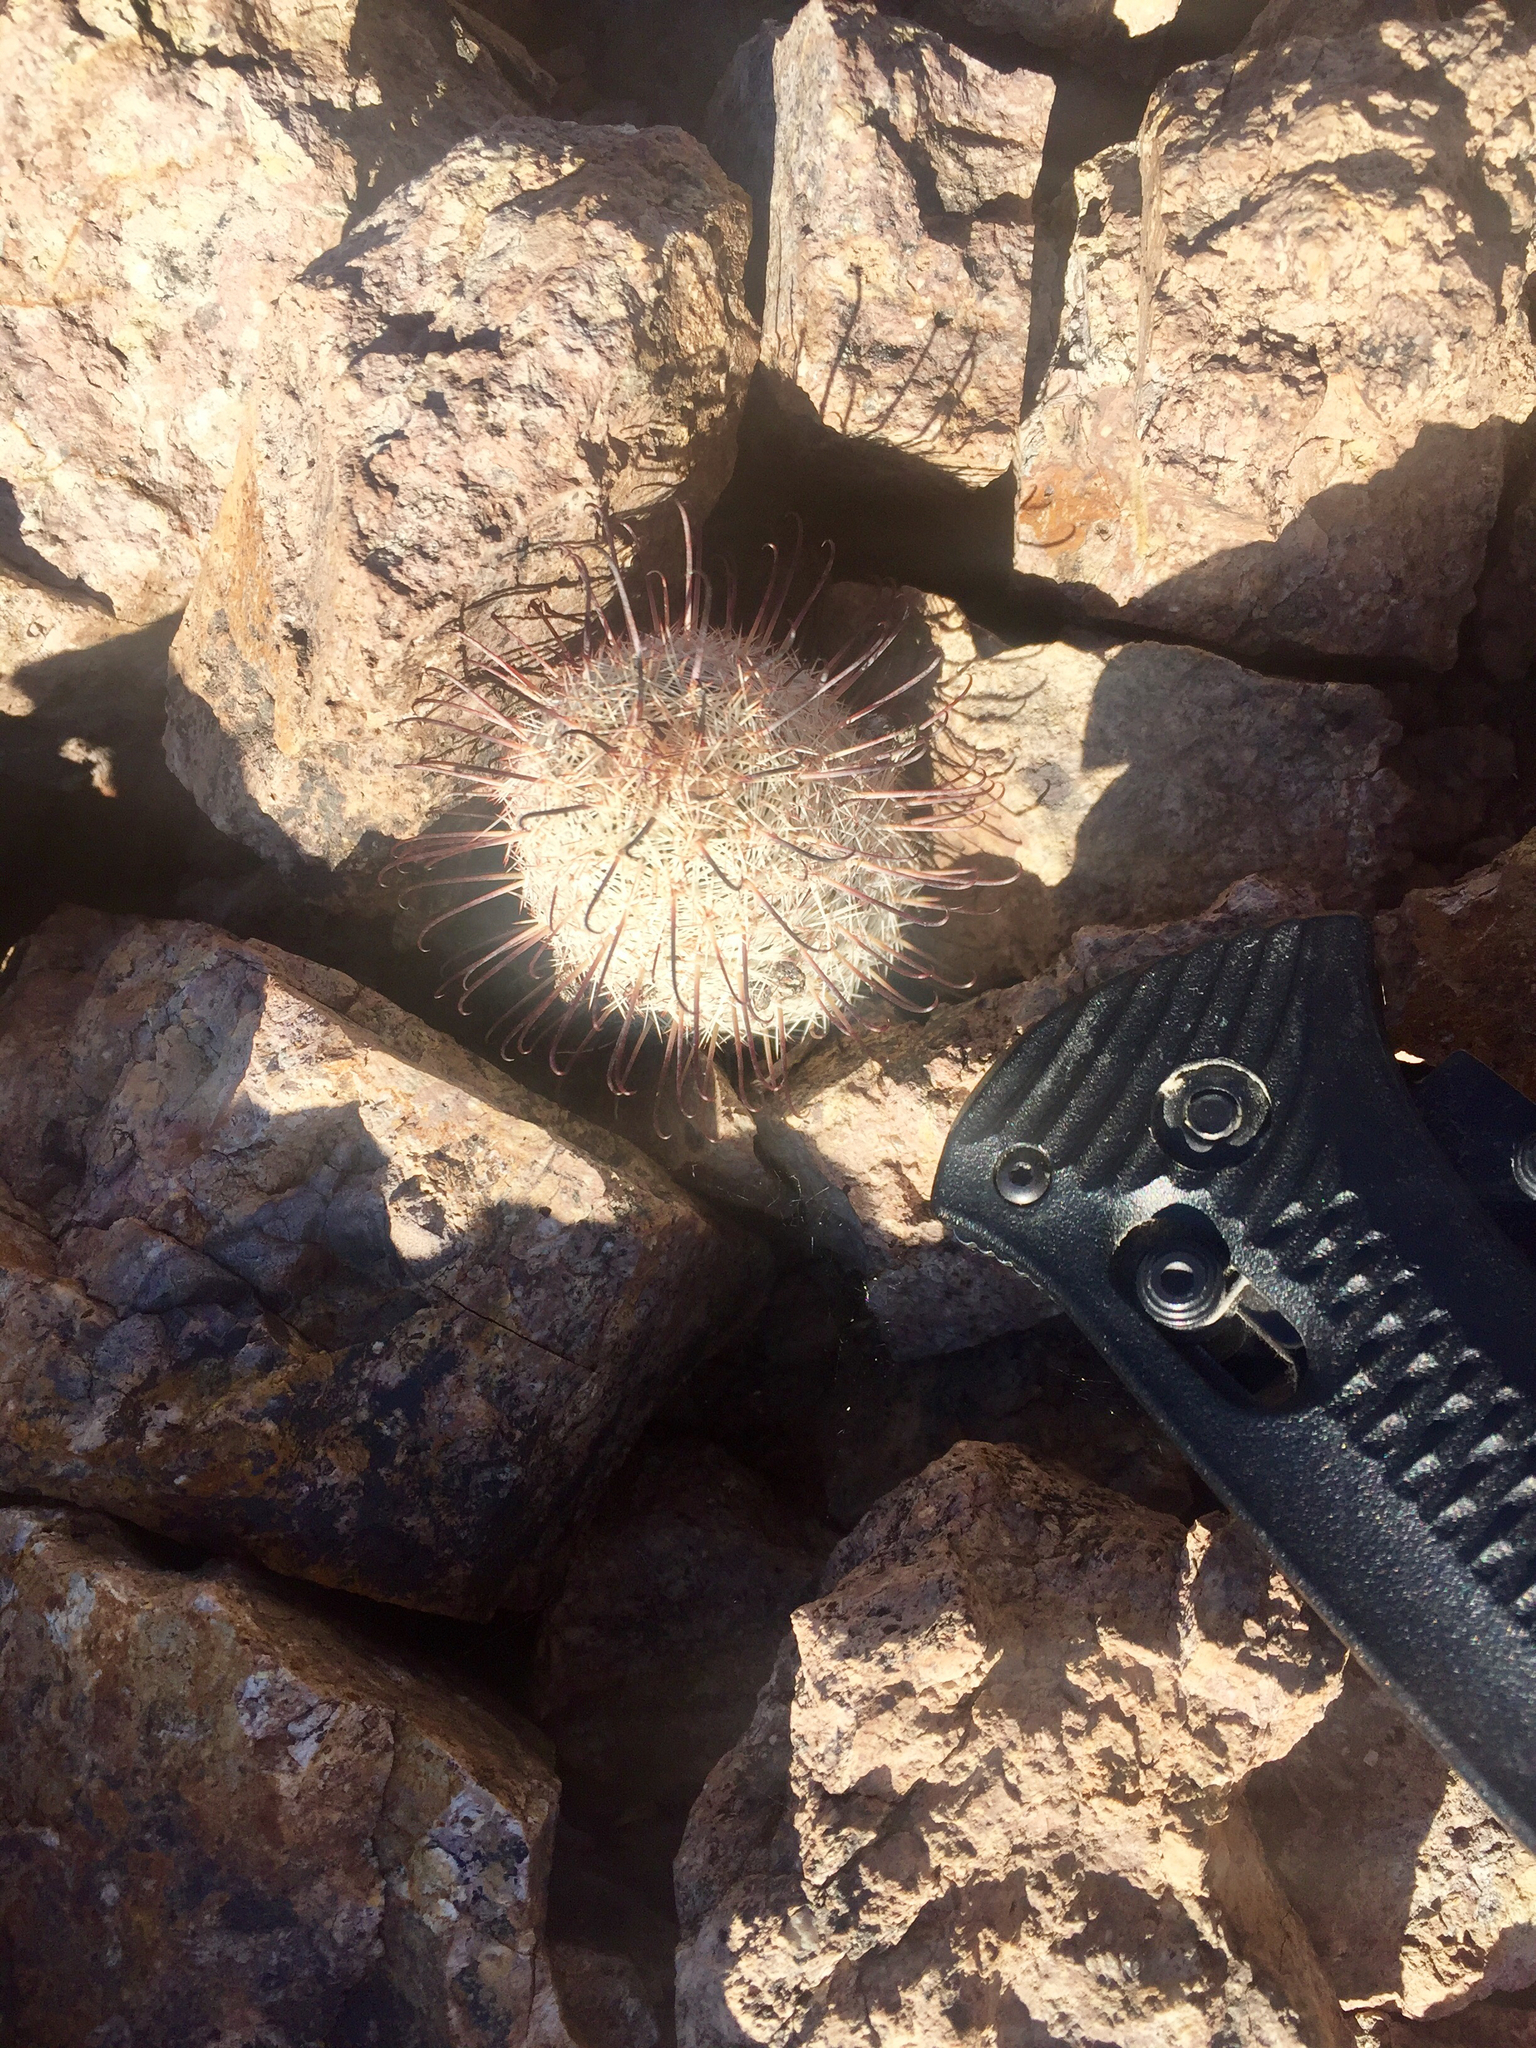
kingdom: Plantae
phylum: Tracheophyta
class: Magnoliopsida
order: Caryophyllales
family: Cactaceae
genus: Cochemiea
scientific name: Cochemiea grahamii
